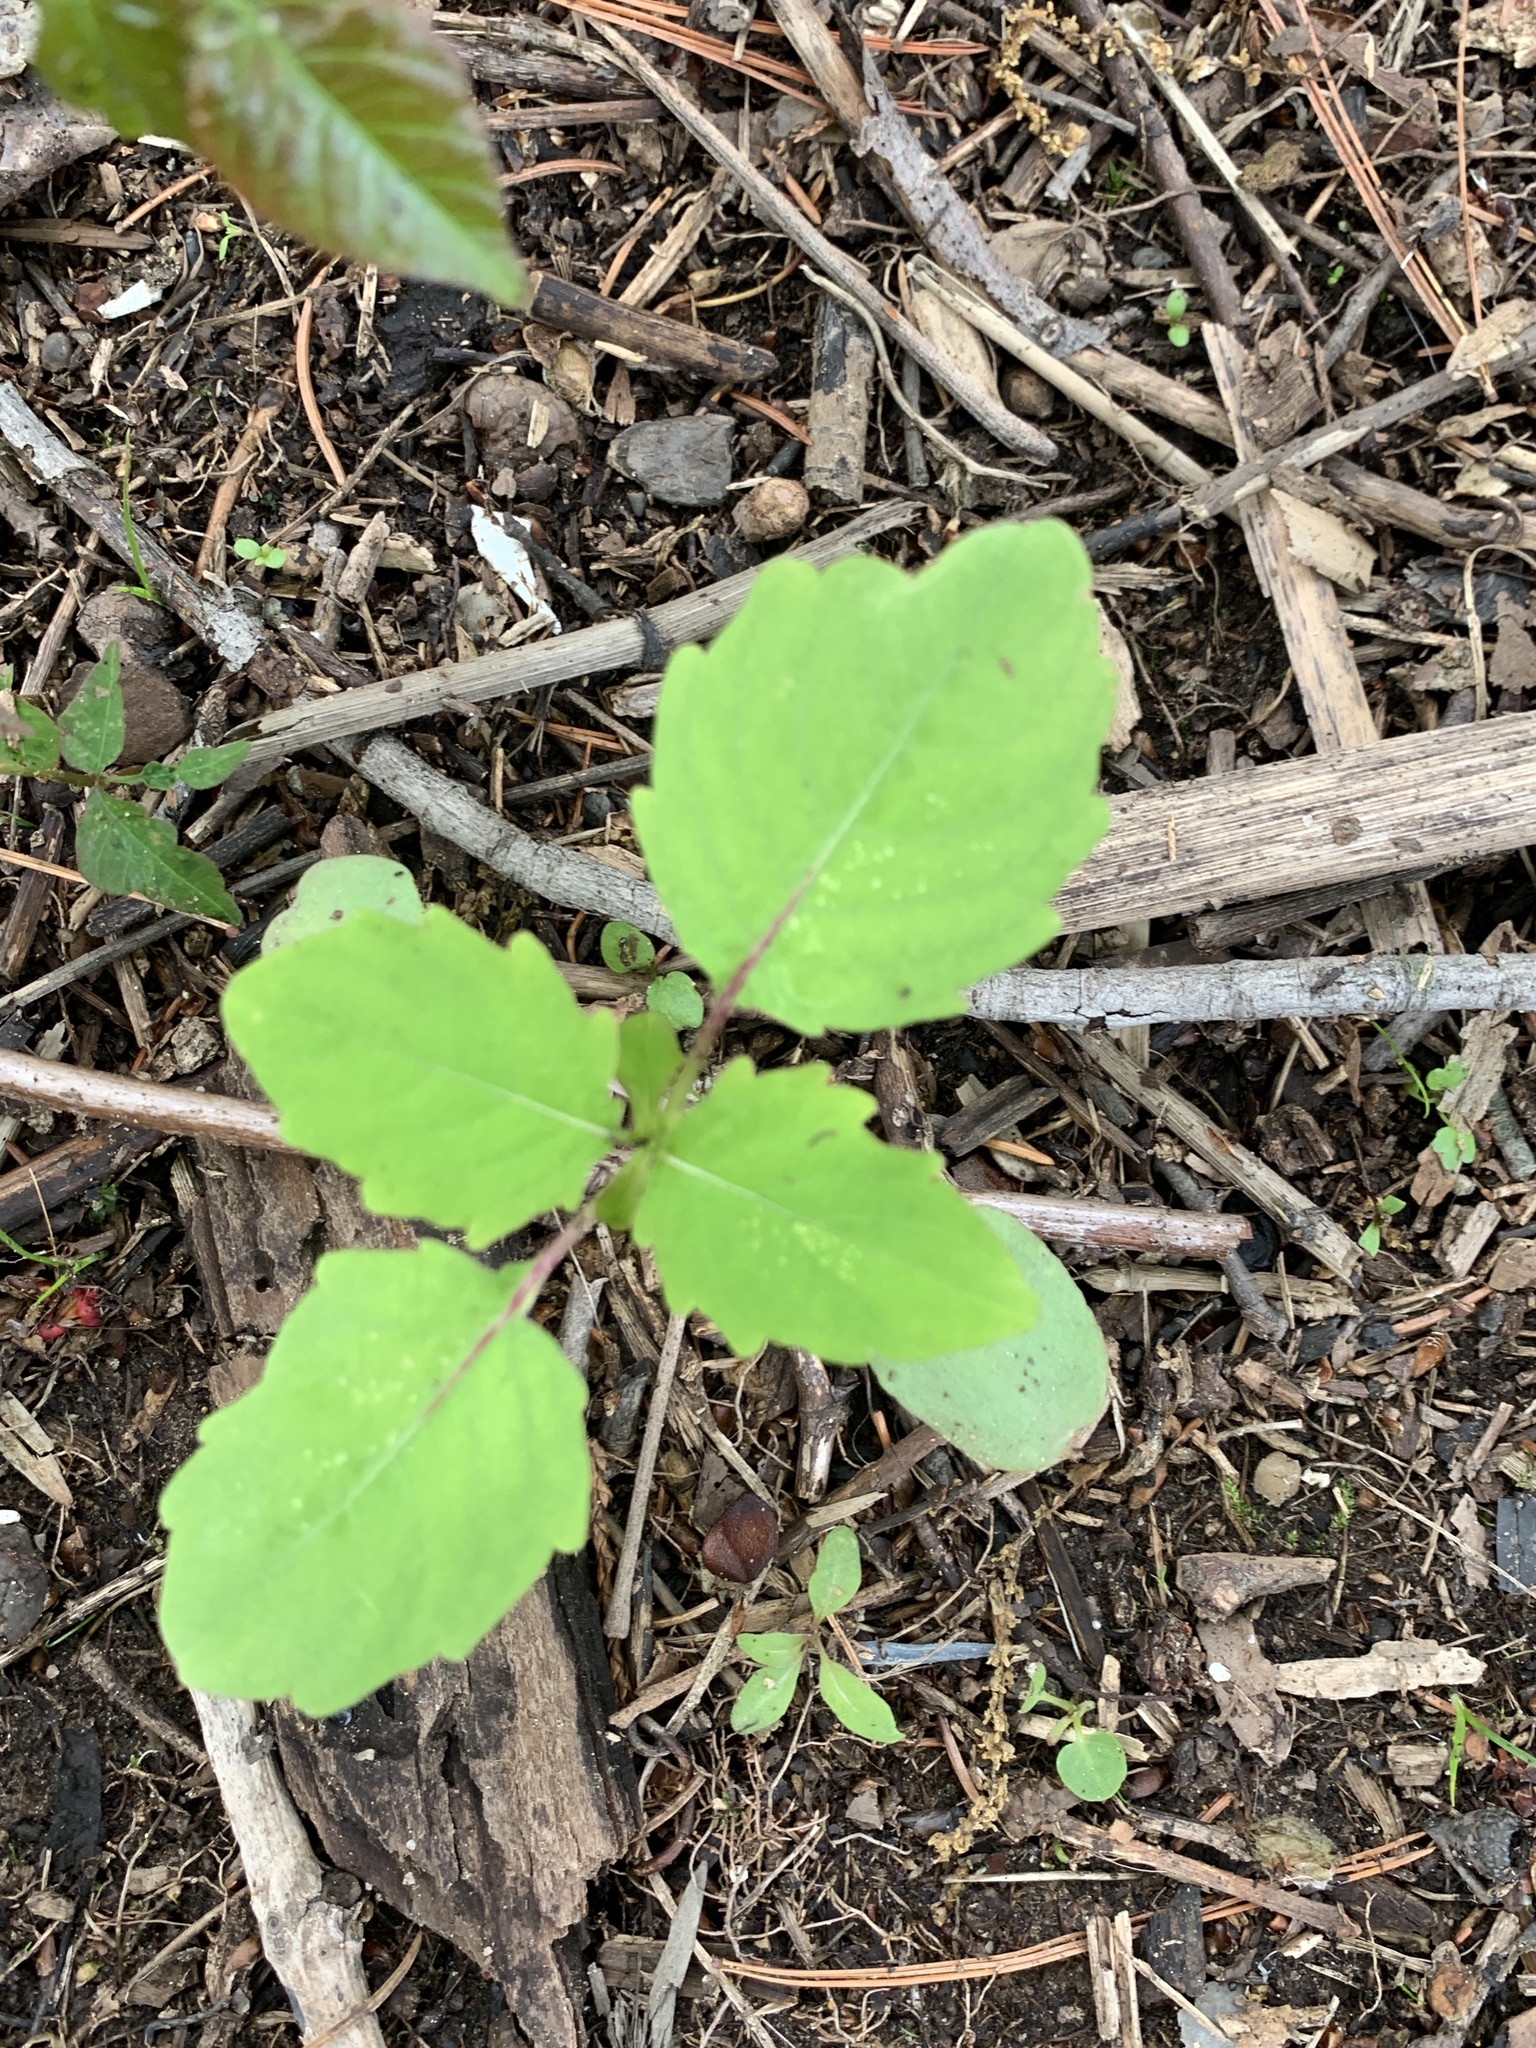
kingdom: Plantae
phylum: Tracheophyta
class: Magnoliopsida
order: Ericales
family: Balsaminaceae
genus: Impatiens
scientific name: Impatiens capensis
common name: Orange balsam
